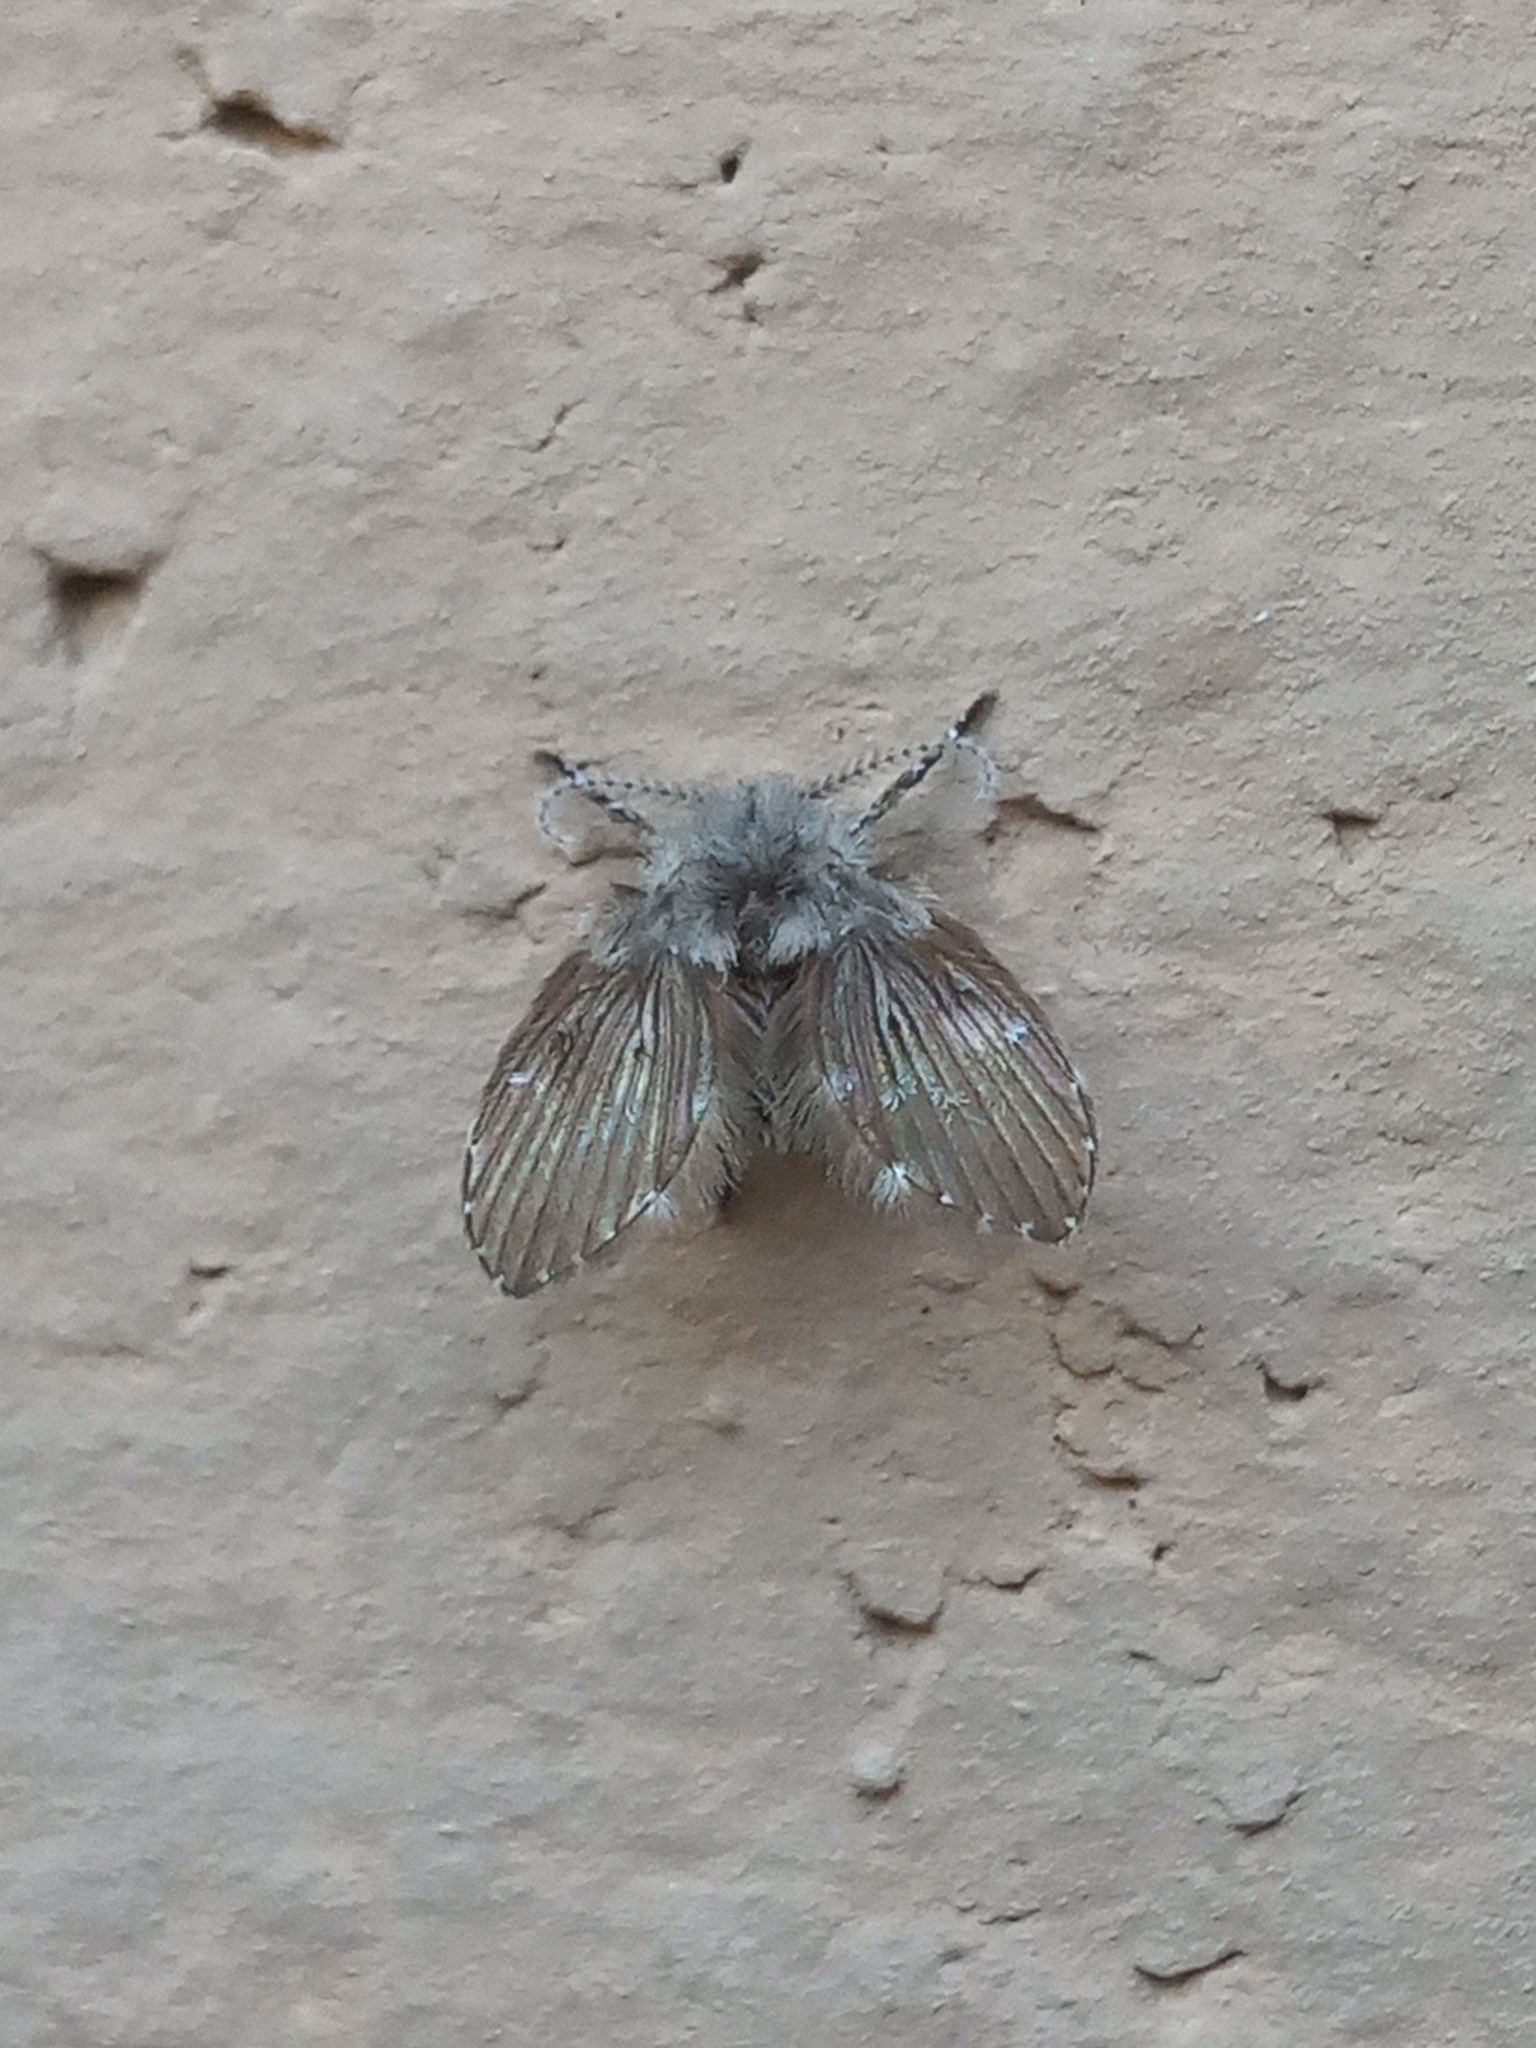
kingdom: Animalia
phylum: Arthropoda
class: Insecta
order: Diptera
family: Psychodidae
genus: Clogmia
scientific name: Clogmia albipunctatus
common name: White-spotted moth fly
